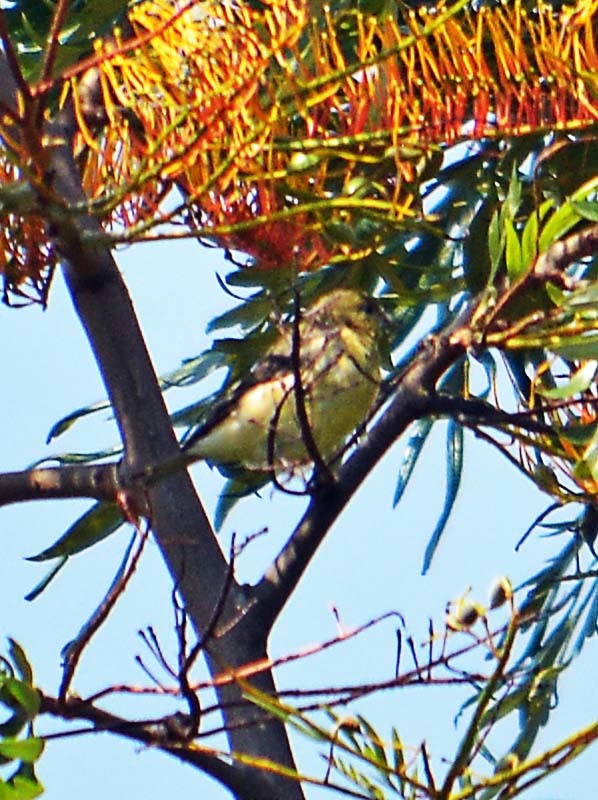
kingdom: Animalia
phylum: Chordata
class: Aves
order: Passeriformes
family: Fringillidae
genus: Spinus
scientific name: Spinus psaltria
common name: Lesser goldfinch
